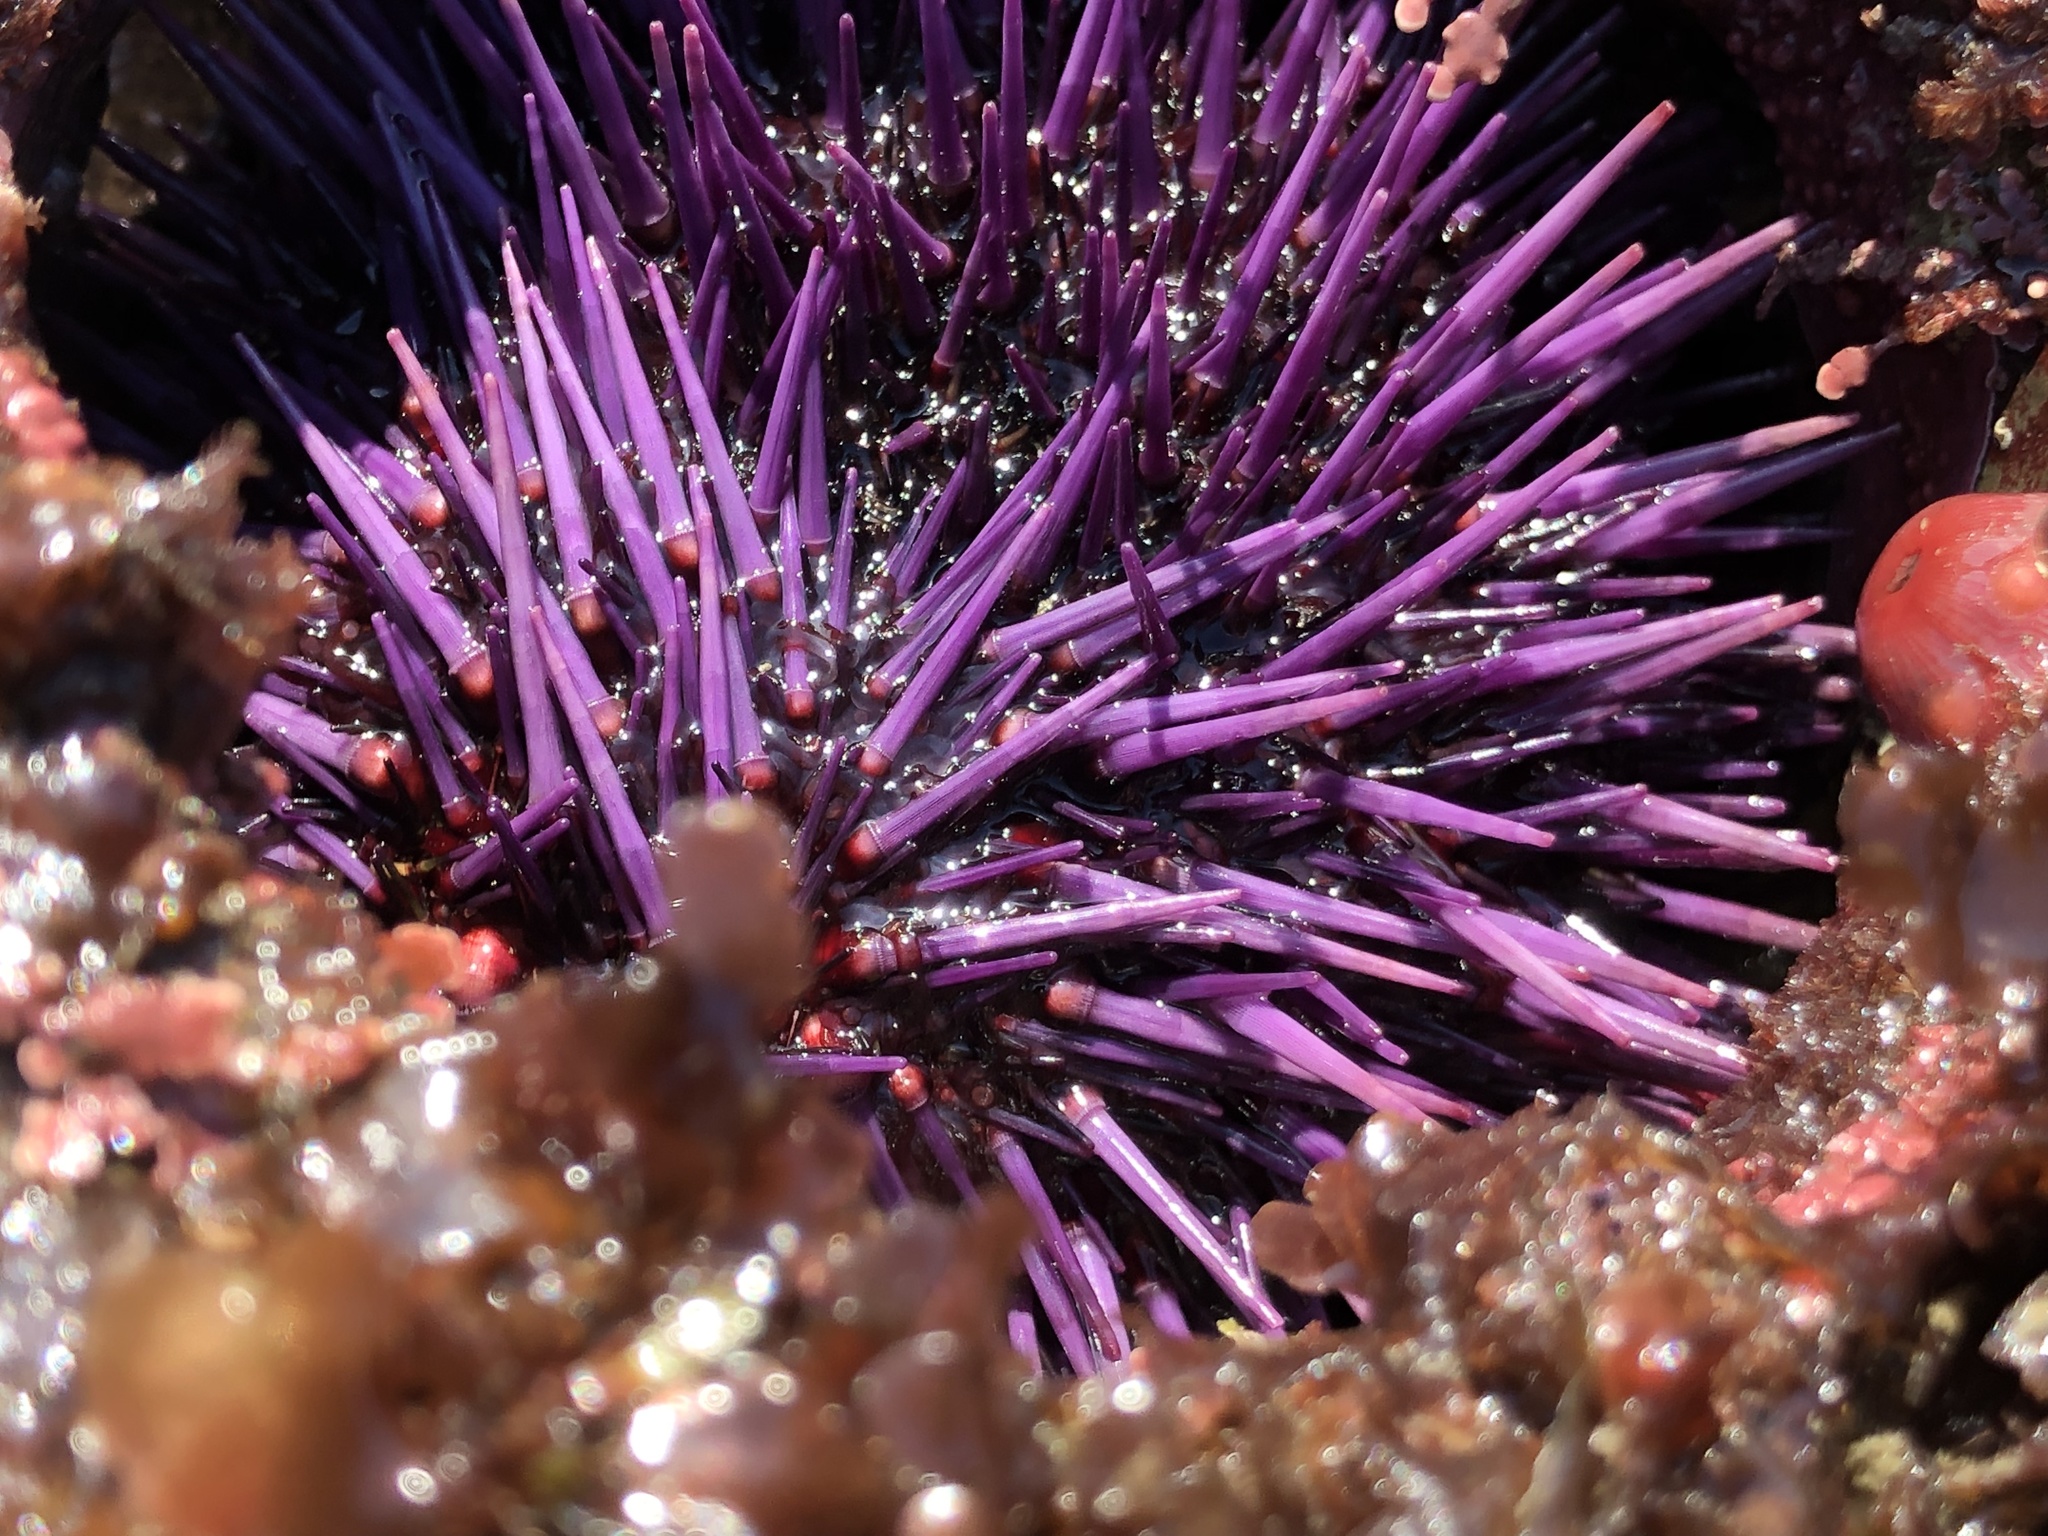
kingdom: Animalia
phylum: Echinodermata
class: Echinoidea
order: Camarodonta
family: Strongylocentrotidae
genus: Strongylocentrotus
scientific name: Strongylocentrotus purpuratus
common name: Purple sea urchin
